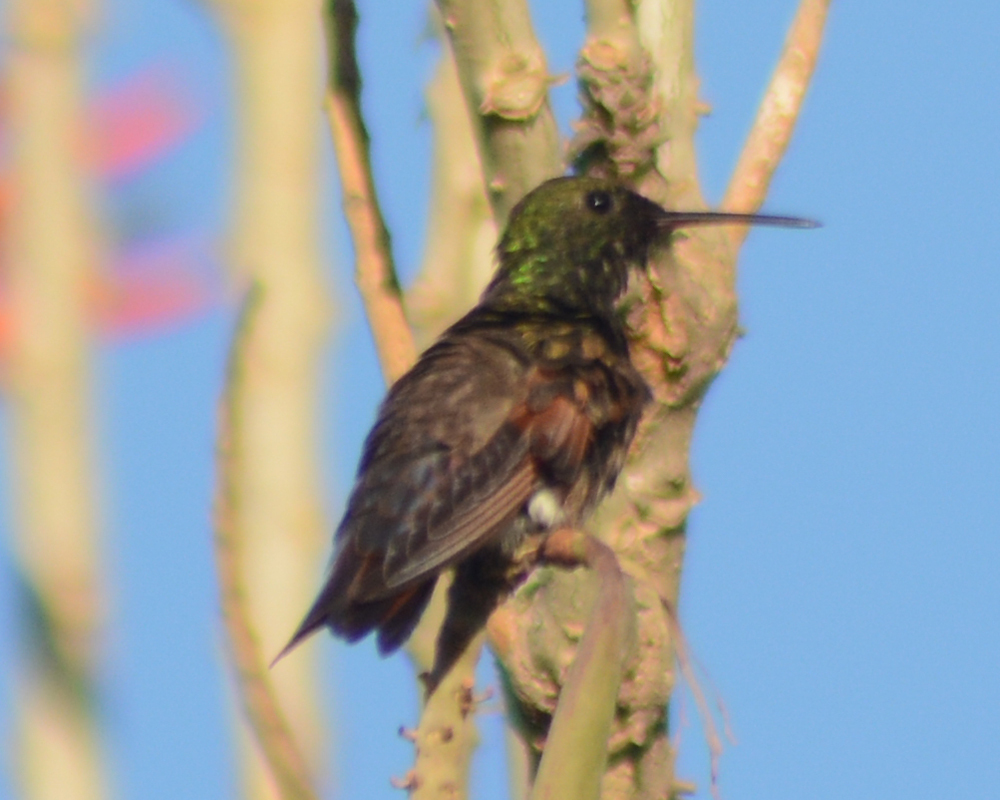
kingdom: Animalia
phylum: Chordata
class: Aves
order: Apodiformes
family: Trochilidae
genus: Saucerottia
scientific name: Saucerottia beryllina
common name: Berylline hummingbird
